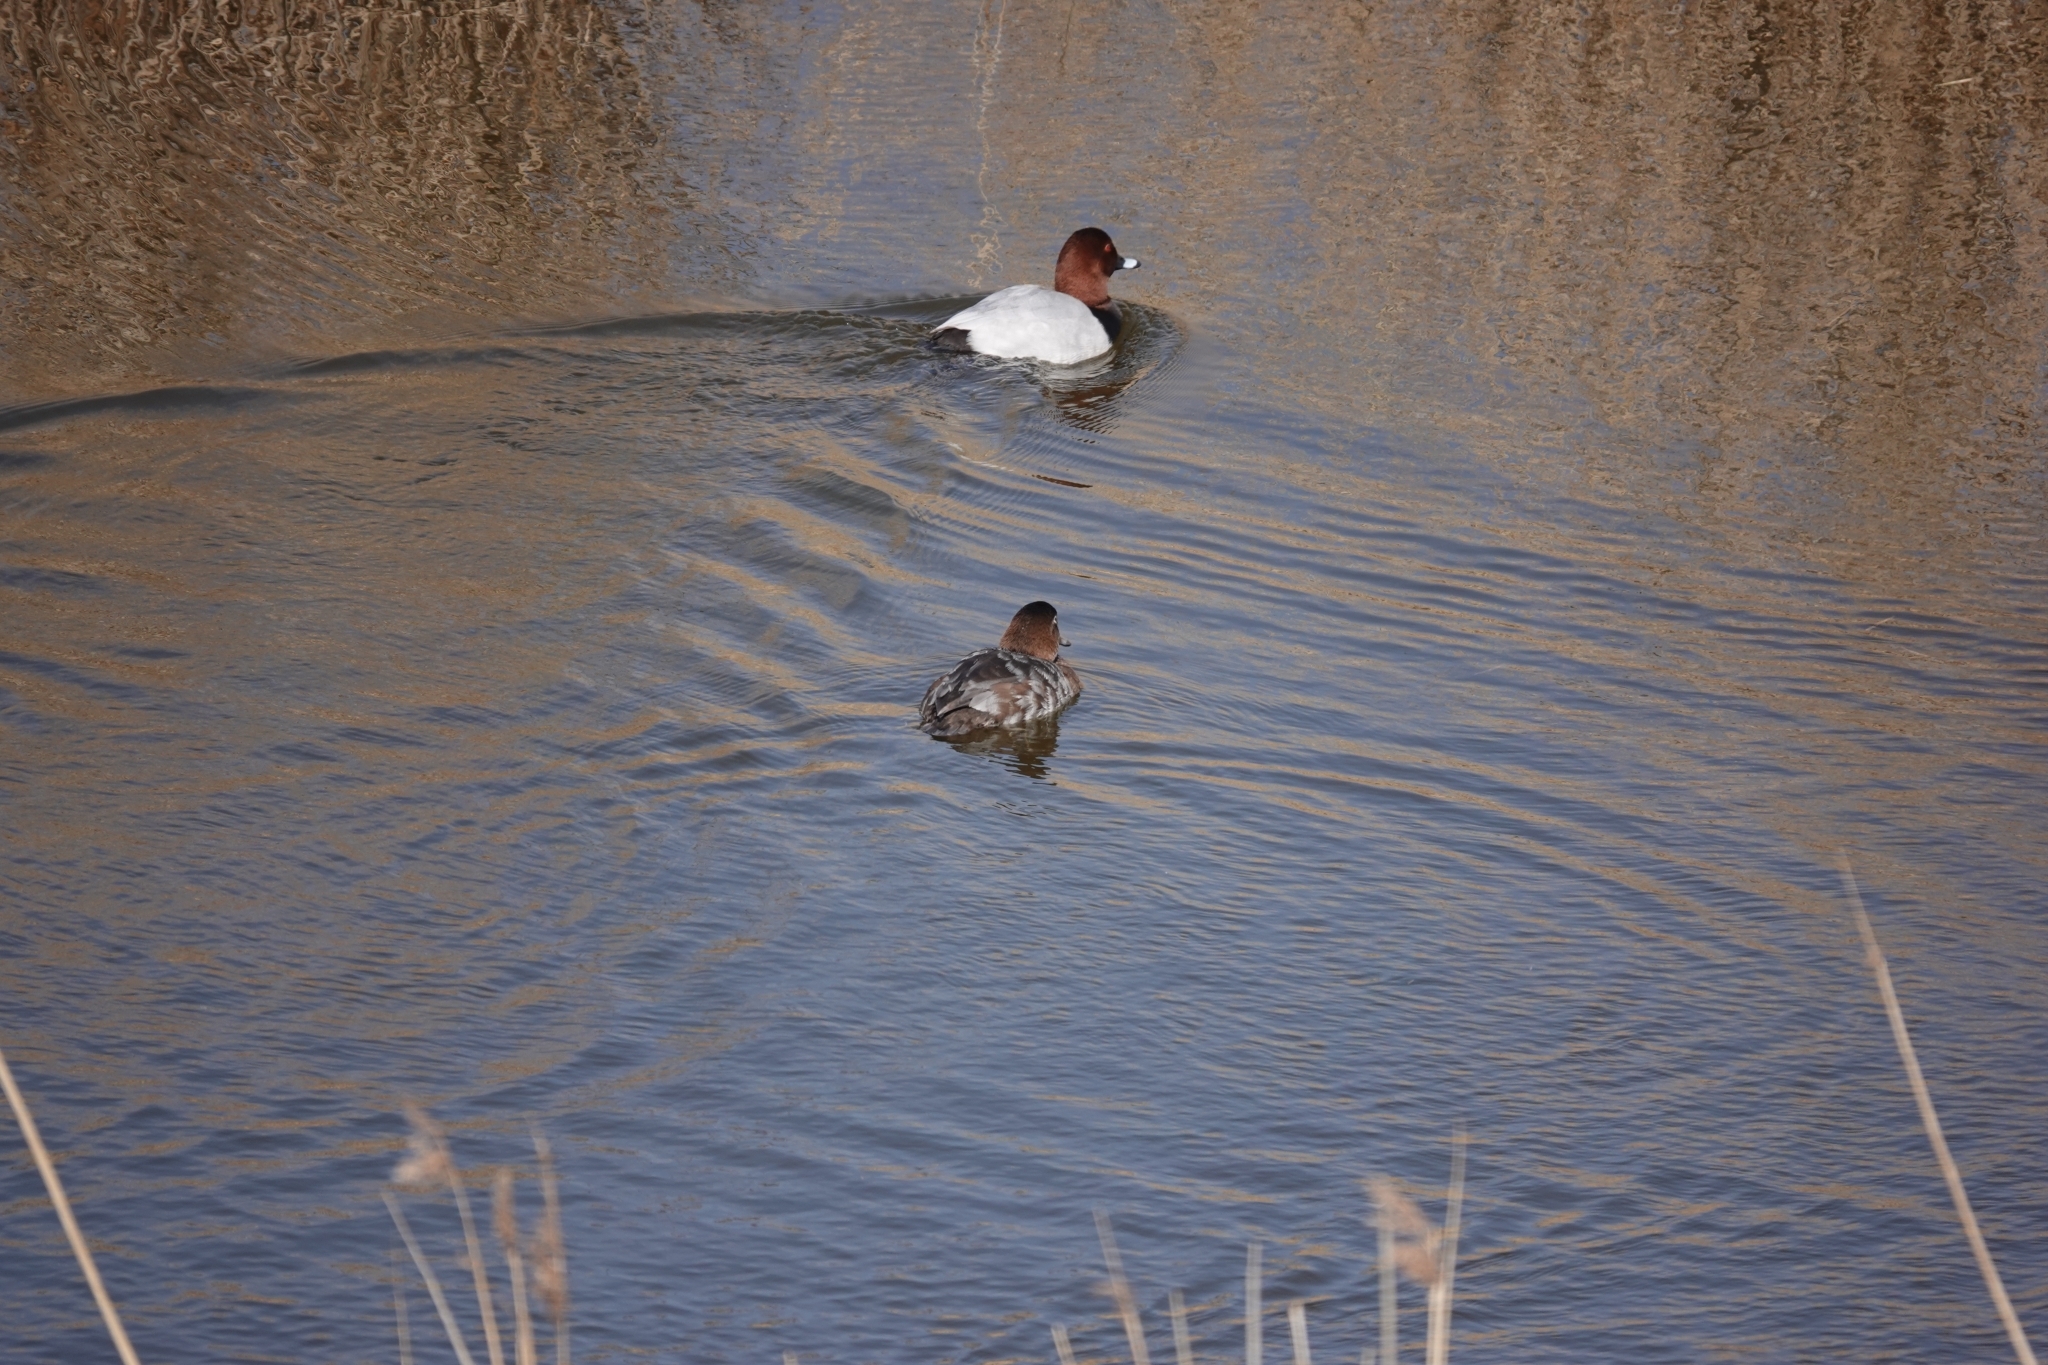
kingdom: Animalia
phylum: Chordata
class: Aves
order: Anseriformes
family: Anatidae
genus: Aythya
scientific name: Aythya ferina
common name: Common pochard
